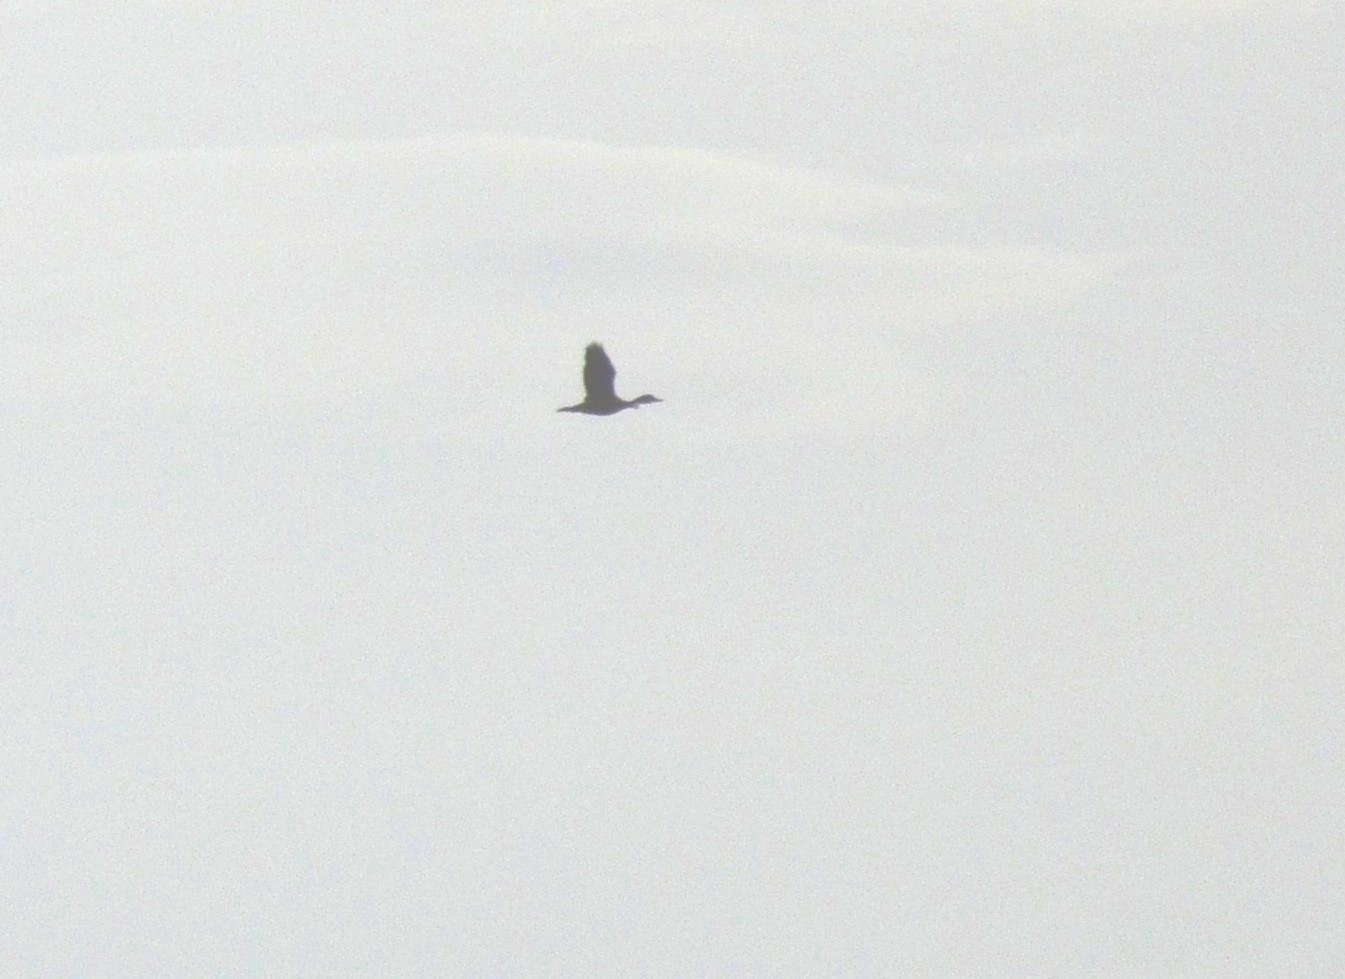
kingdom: Animalia
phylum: Chordata
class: Aves
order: Anseriformes
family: Anatidae
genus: Dendrocygna
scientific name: Dendrocygna javanica
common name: Lesser whistling-duck
